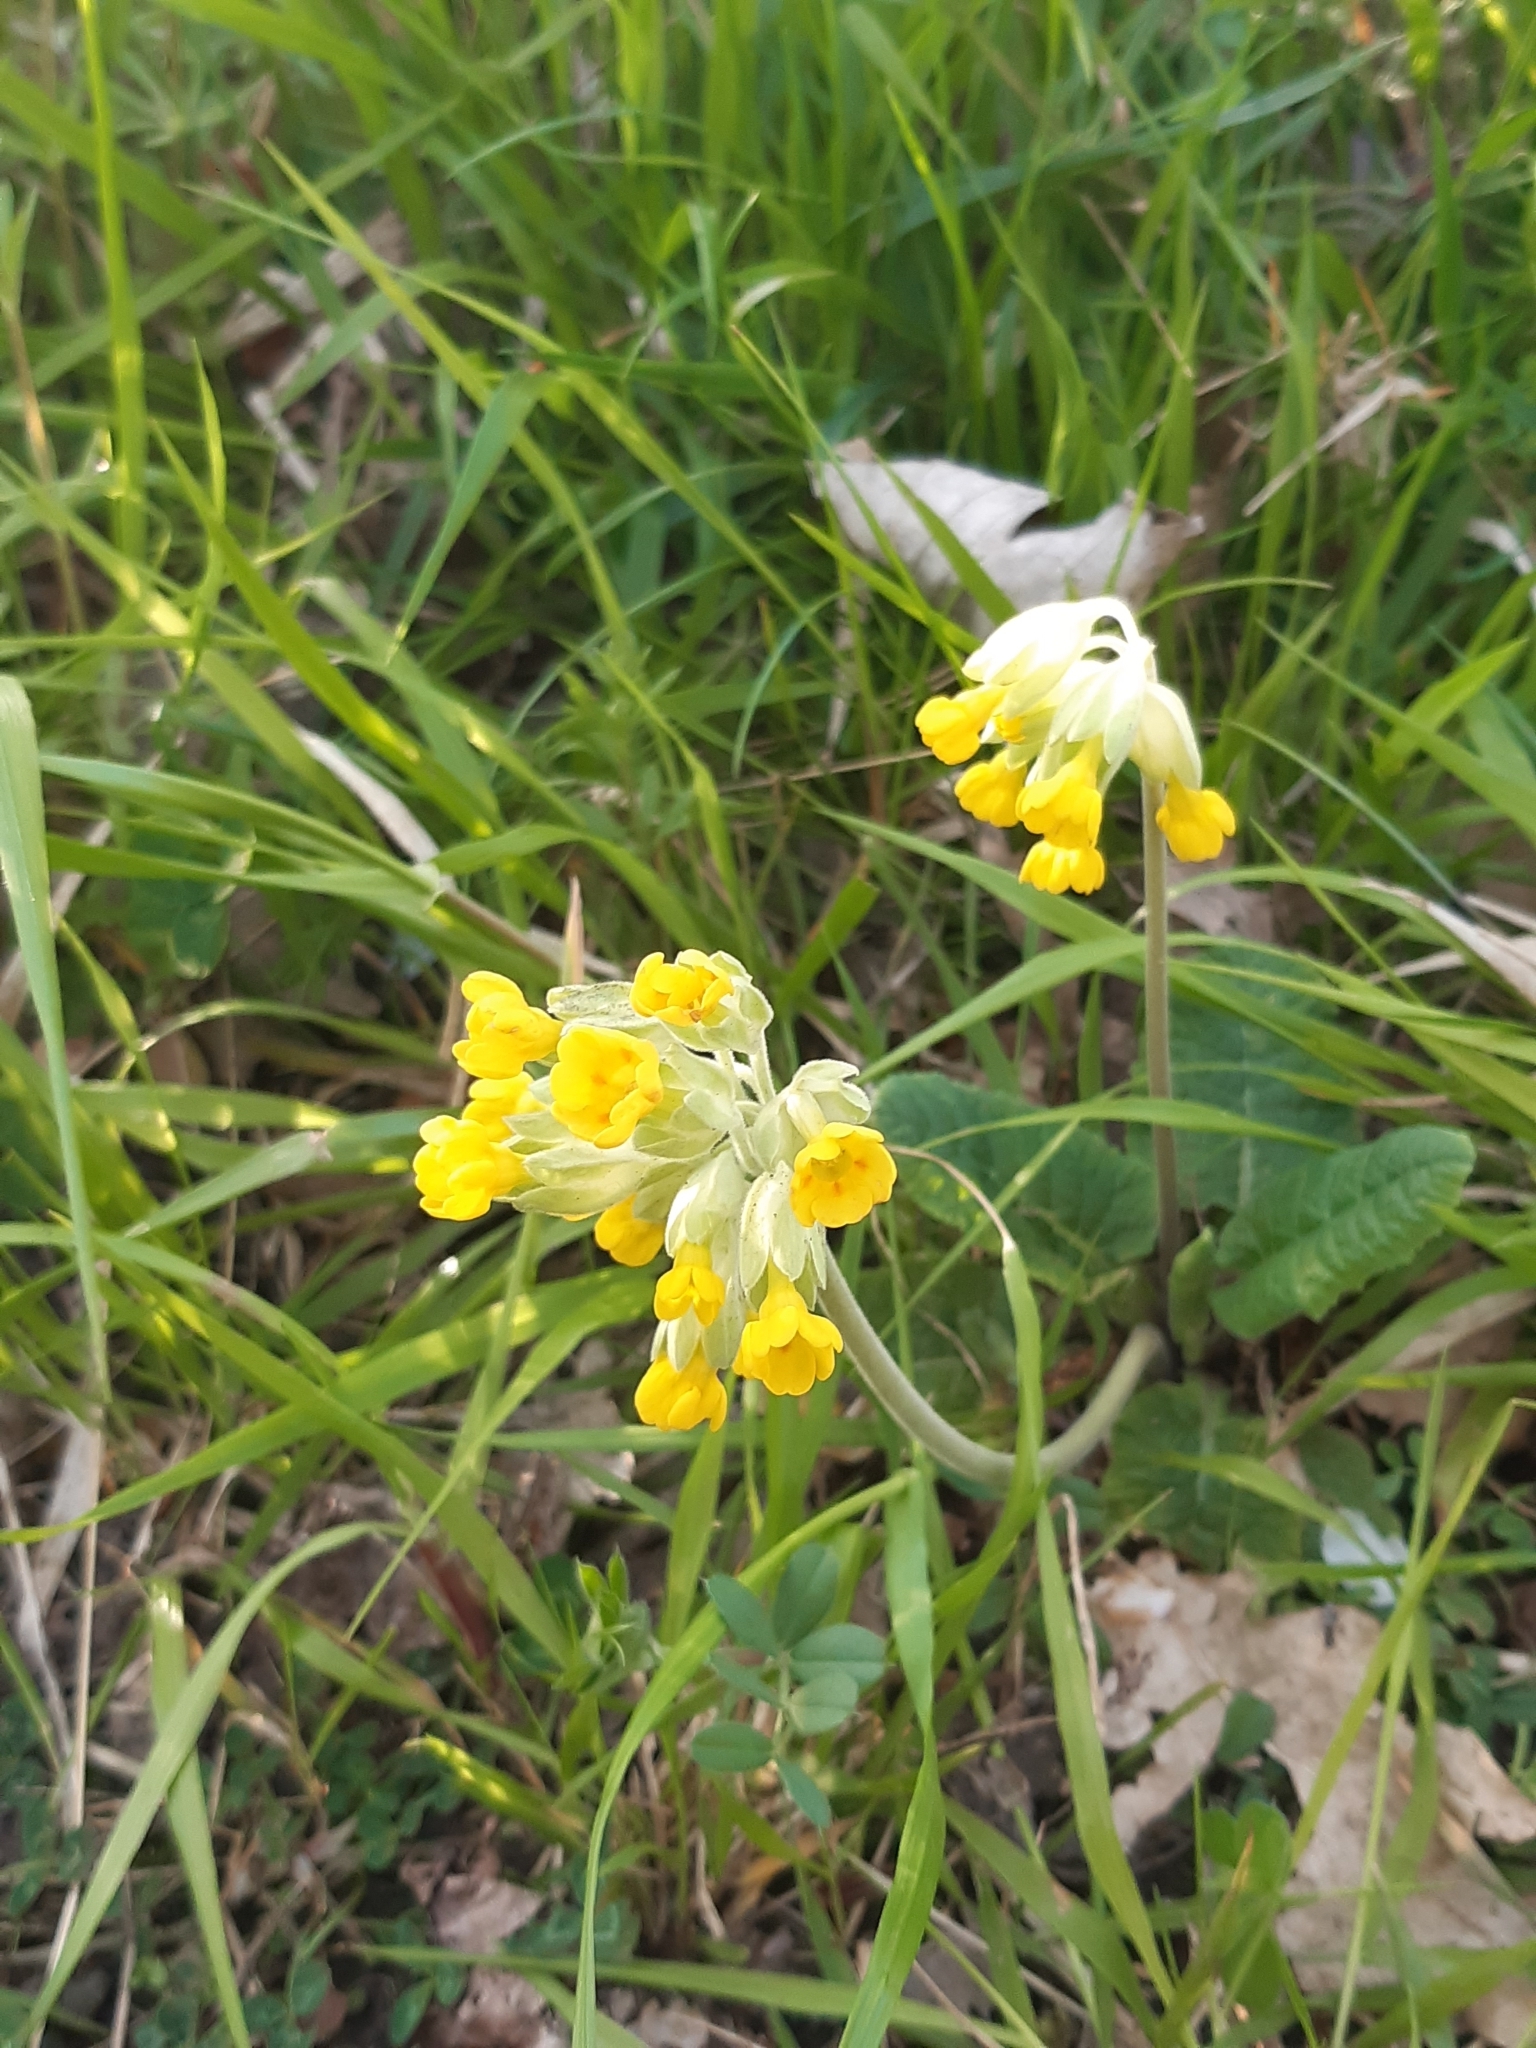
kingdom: Plantae
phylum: Tracheophyta
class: Magnoliopsida
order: Ericales
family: Primulaceae
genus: Primula
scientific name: Primula veris
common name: Cowslip
